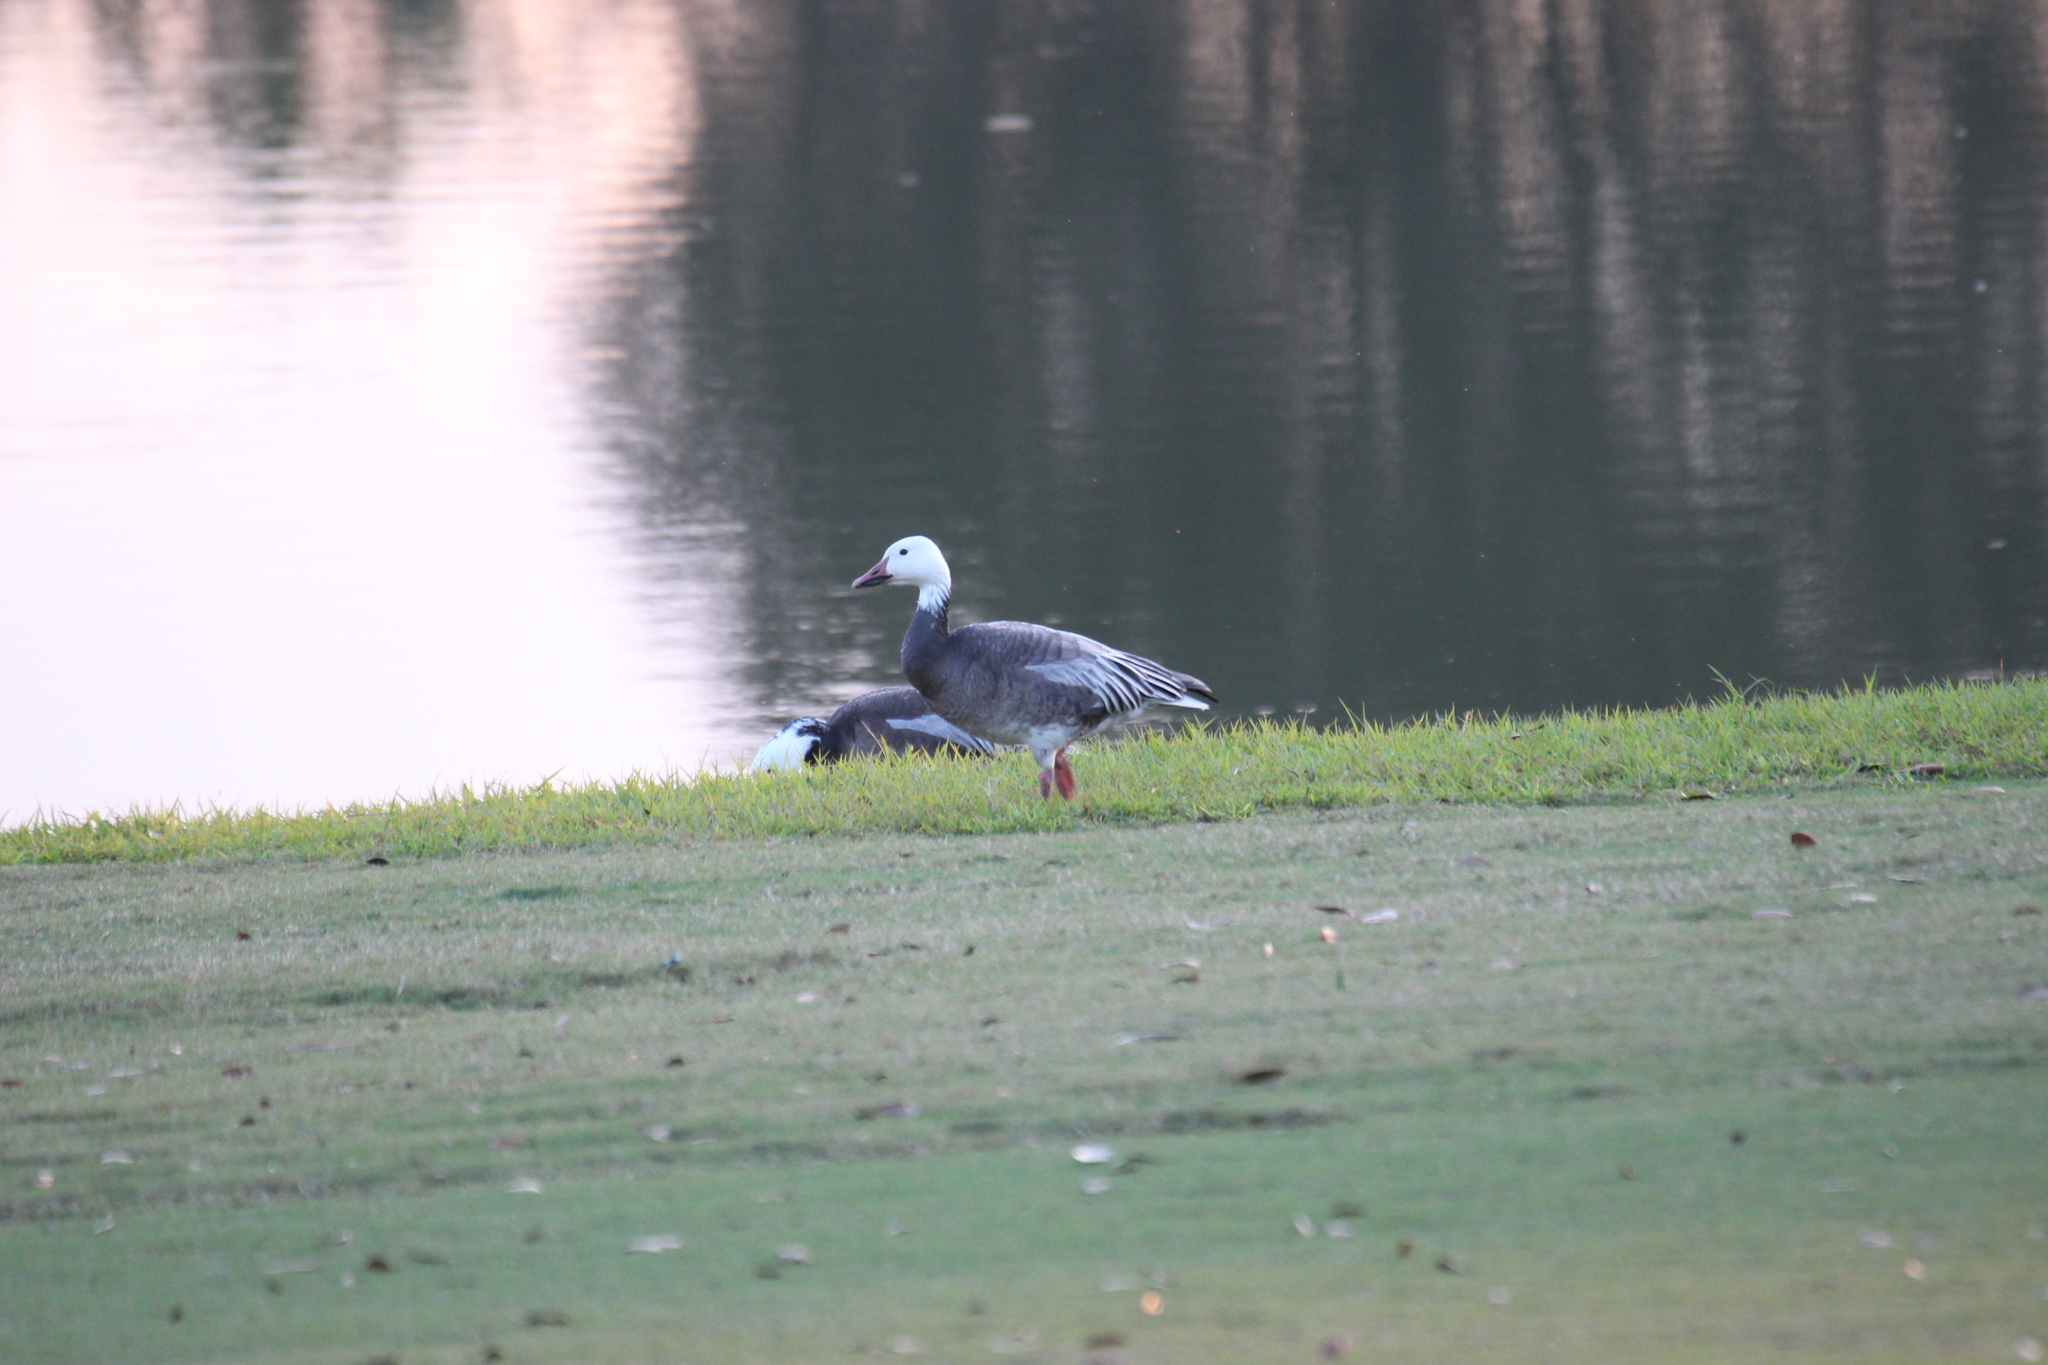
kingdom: Animalia
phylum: Chordata
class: Aves
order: Anseriformes
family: Anatidae
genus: Anser
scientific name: Anser caerulescens
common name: Snow goose
